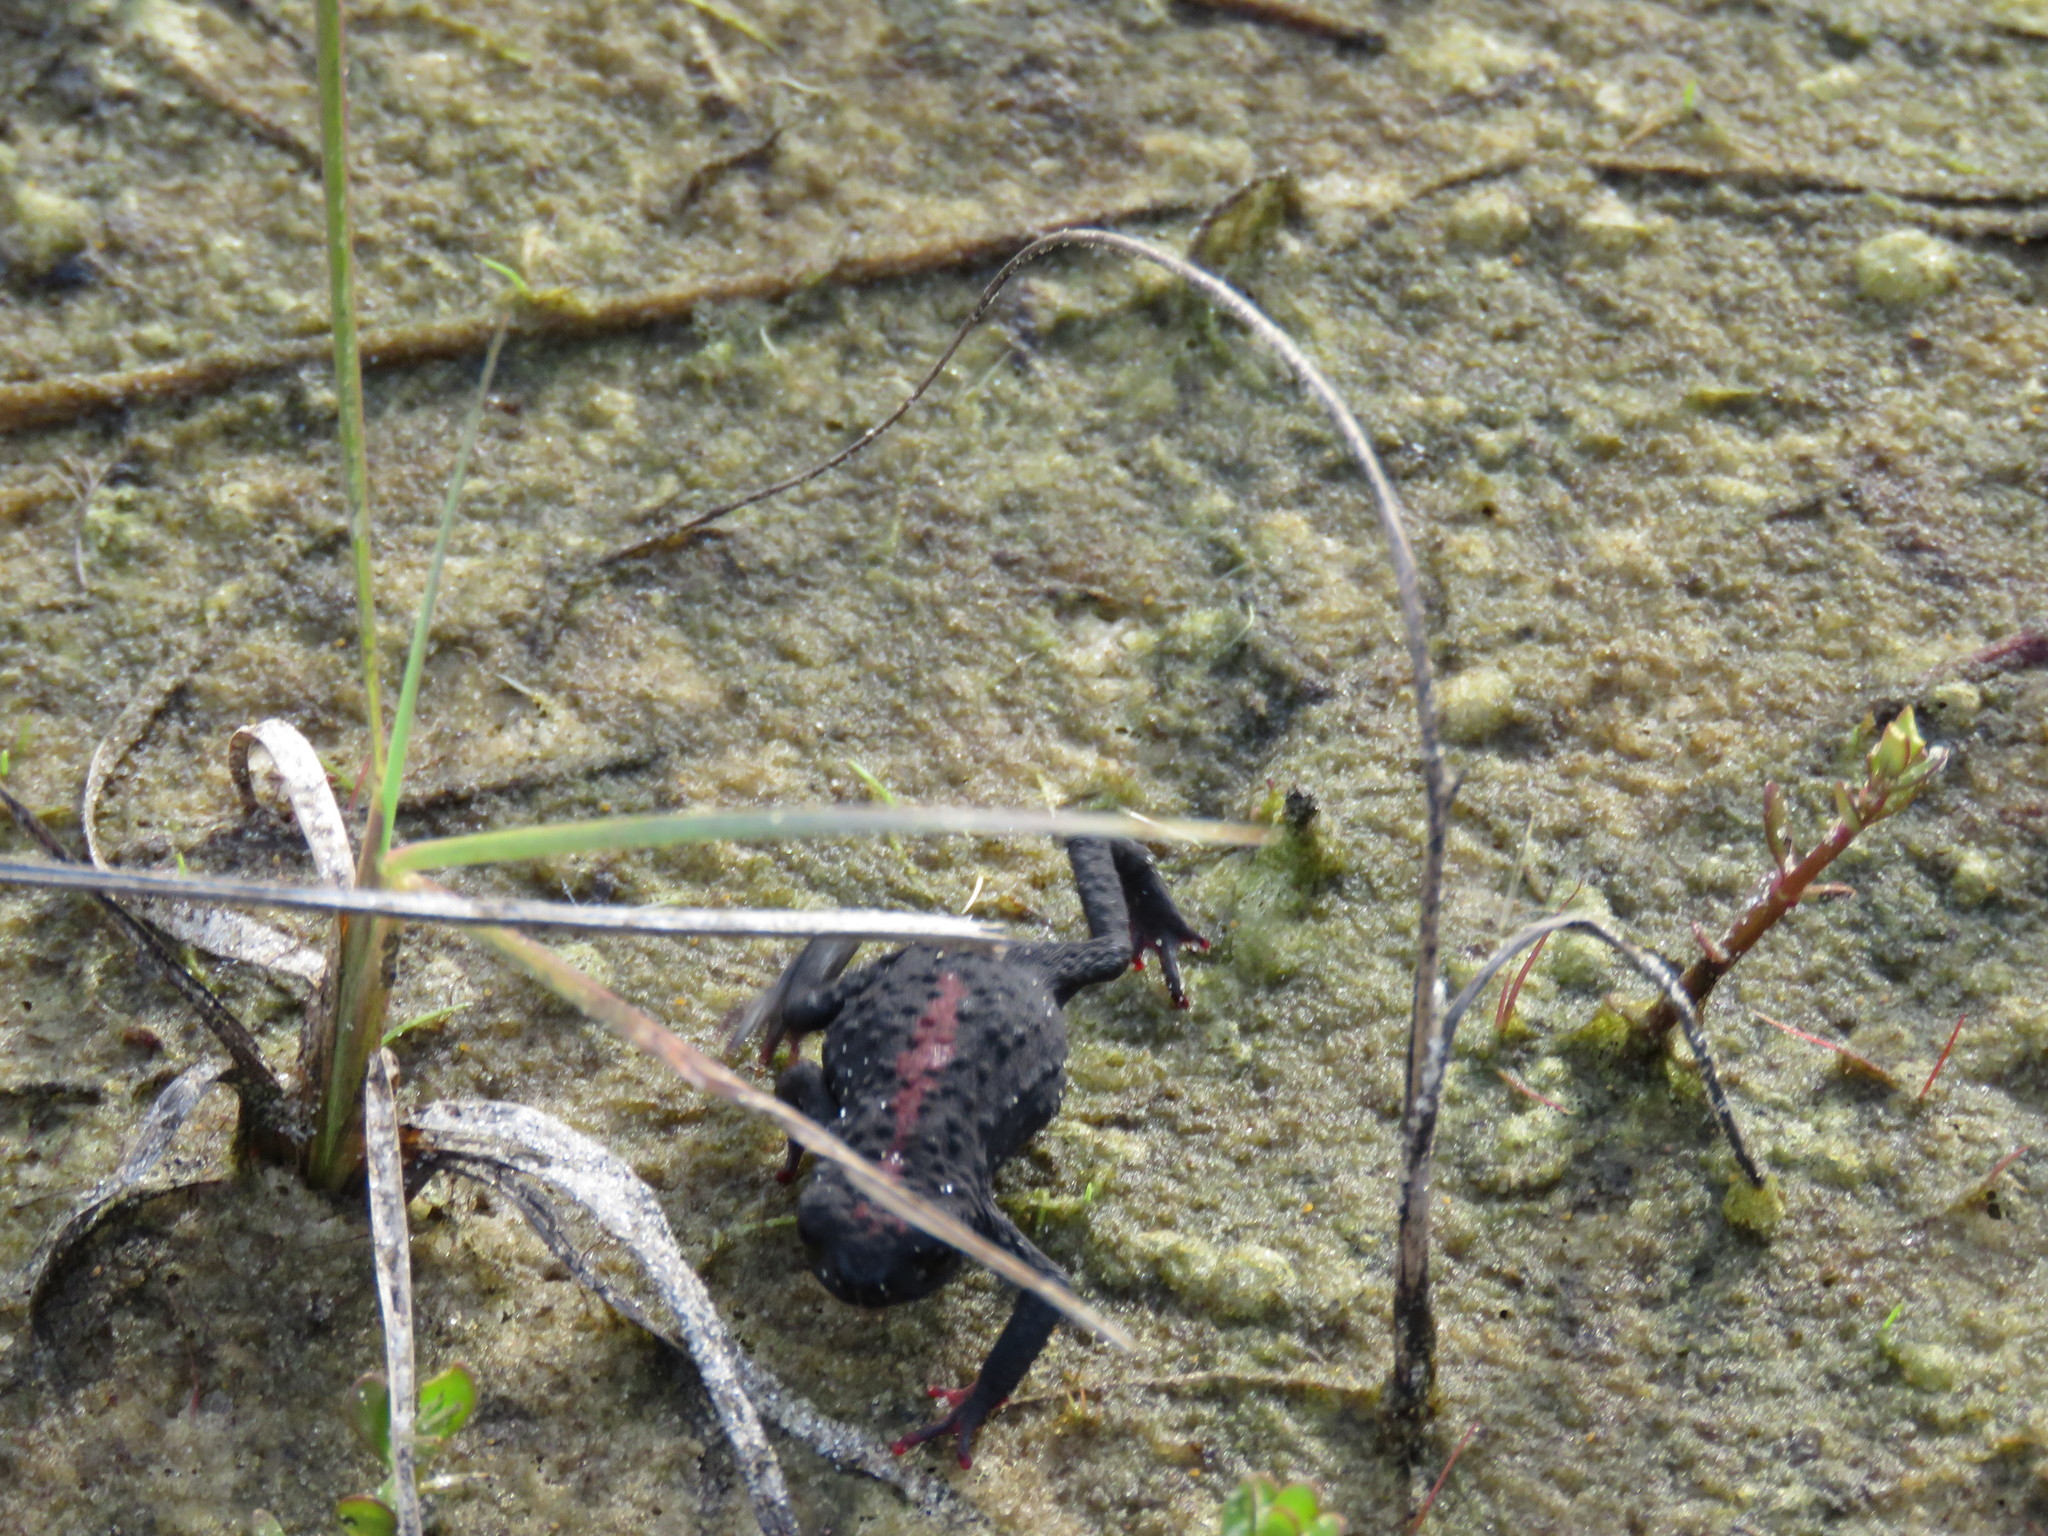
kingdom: Animalia
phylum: Chordata
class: Amphibia
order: Anura
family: Bufonidae
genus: Melanophryniscus
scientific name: Melanophryniscus dorsalis
